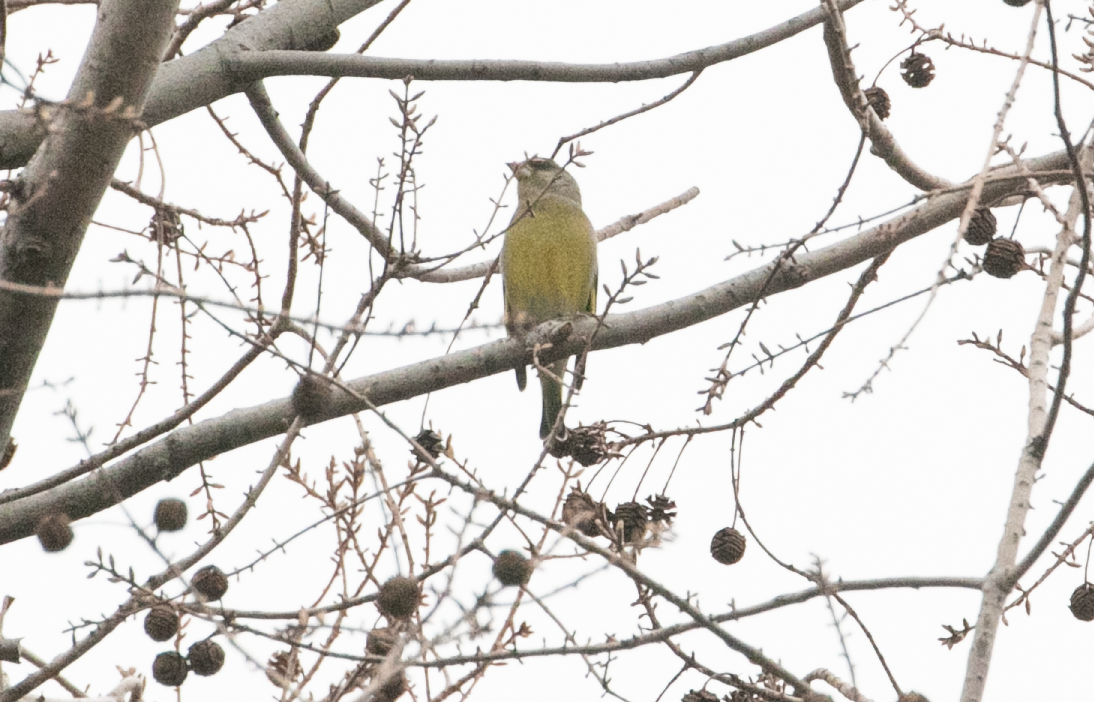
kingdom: Plantae
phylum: Tracheophyta
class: Liliopsida
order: Poales
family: Poaceae
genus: Chloris
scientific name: Chloris chloris
